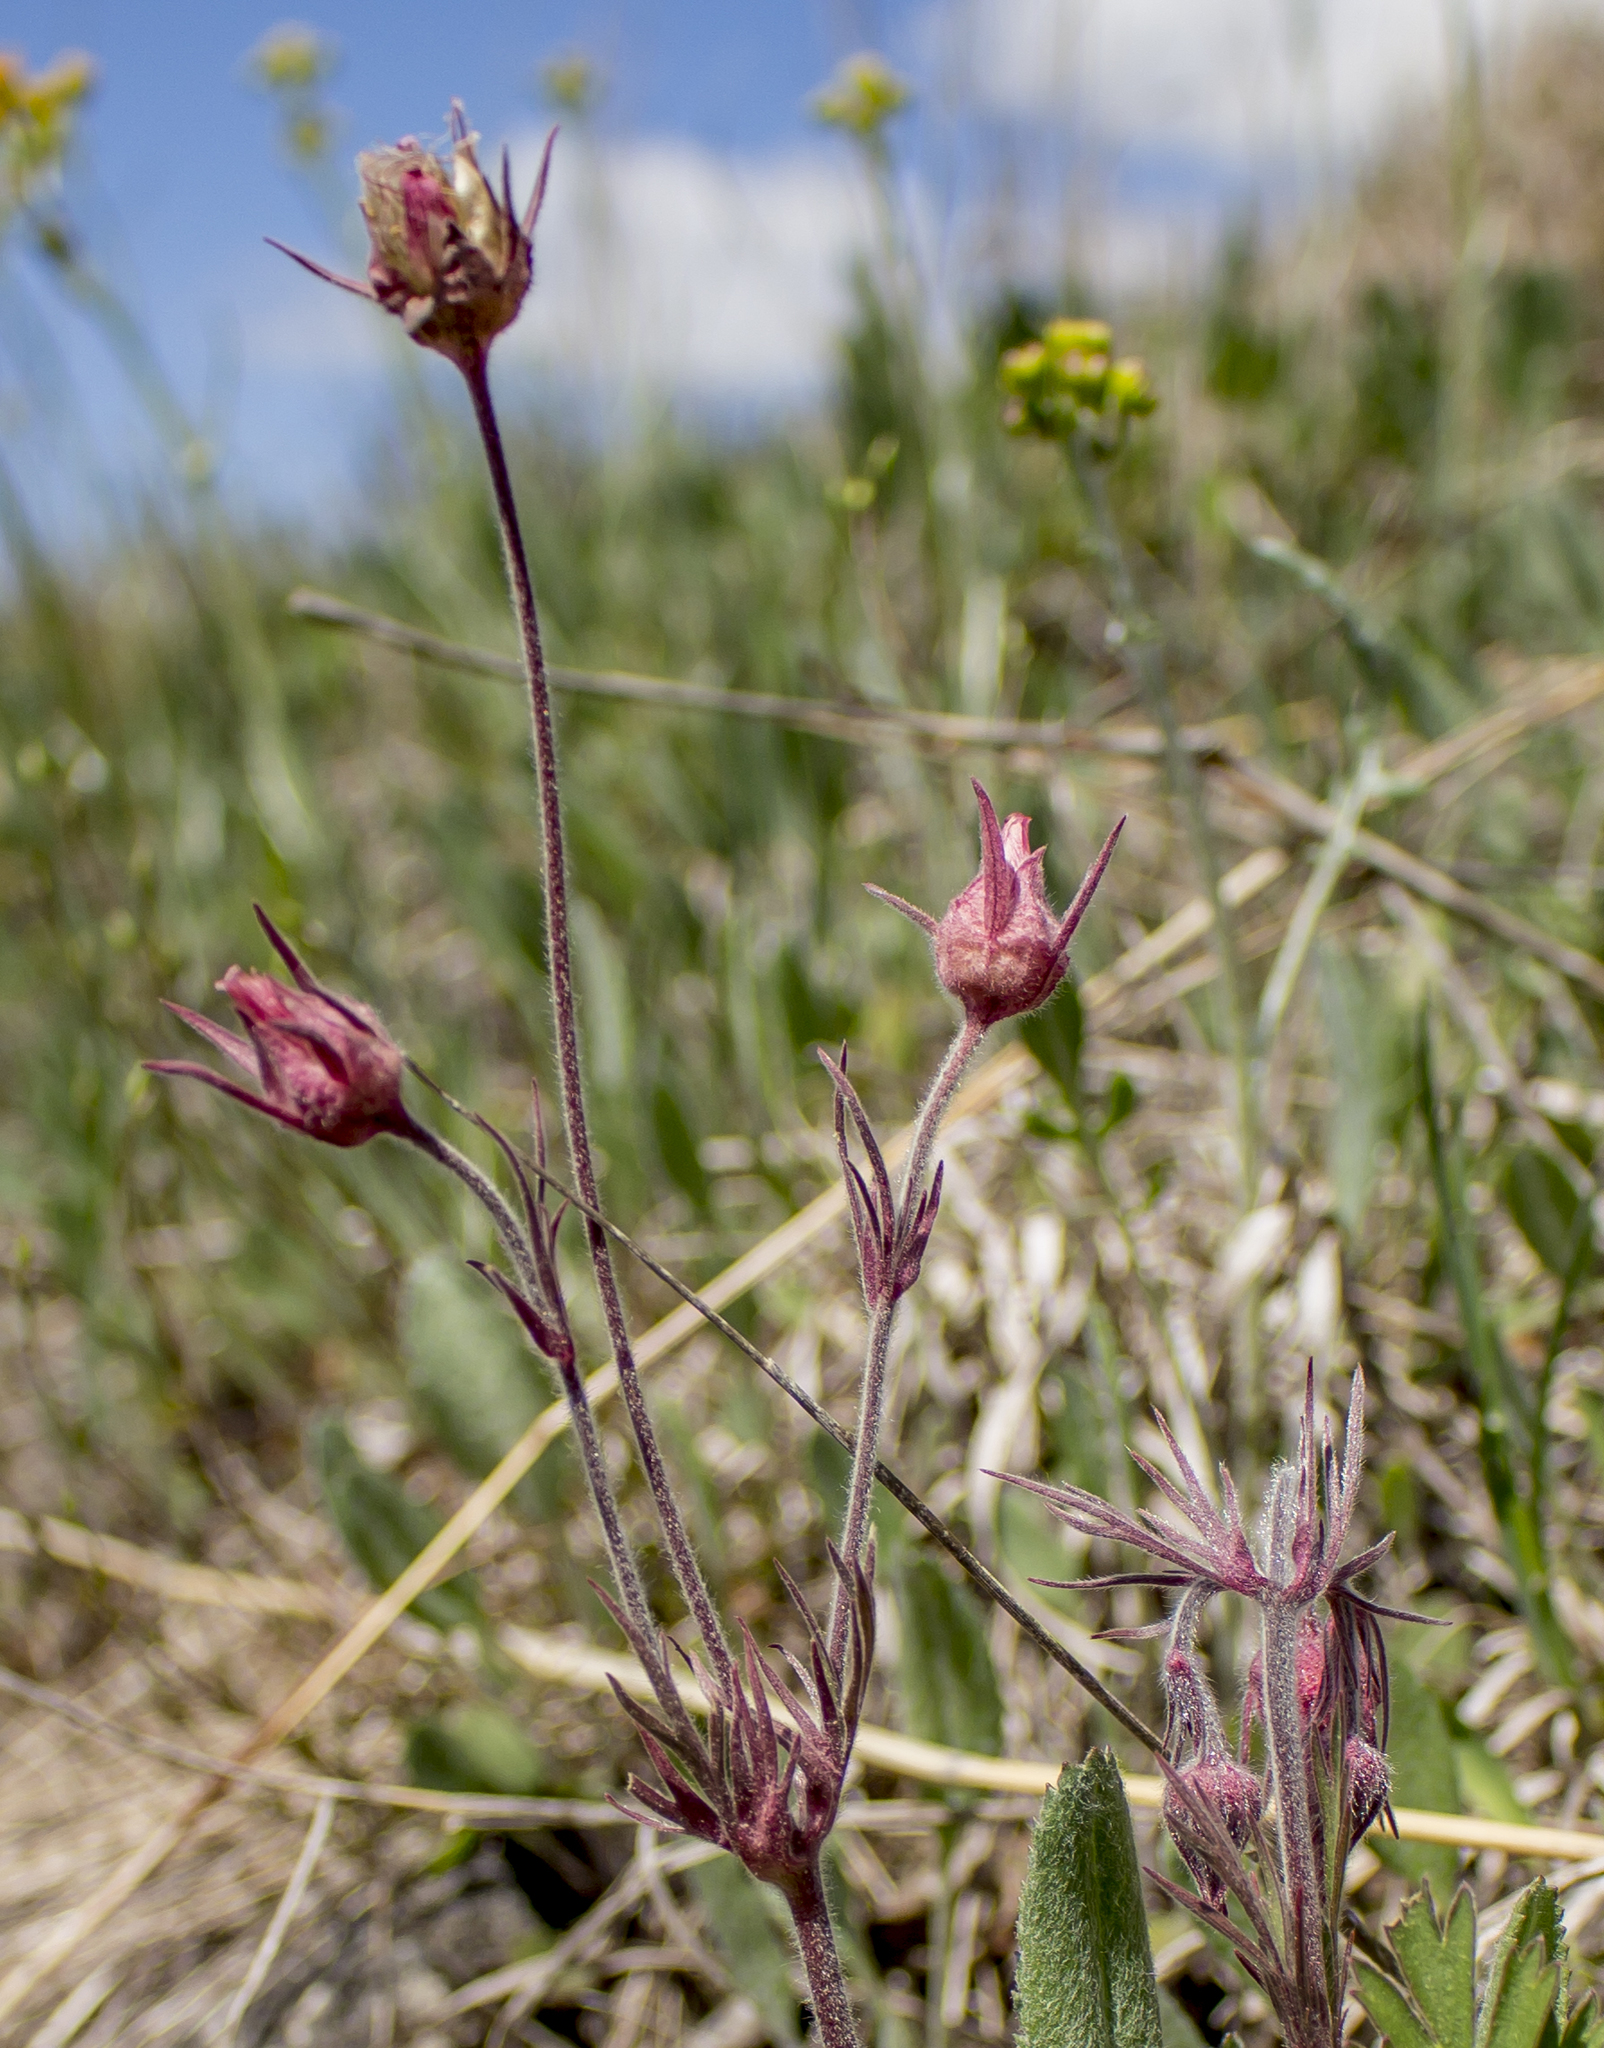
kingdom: Plantae
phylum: Tracheophyta
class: Magnoliopsida
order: Rosales
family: Rosaceae
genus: Geum
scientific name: Geum triflorum
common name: Old man's whiskers
